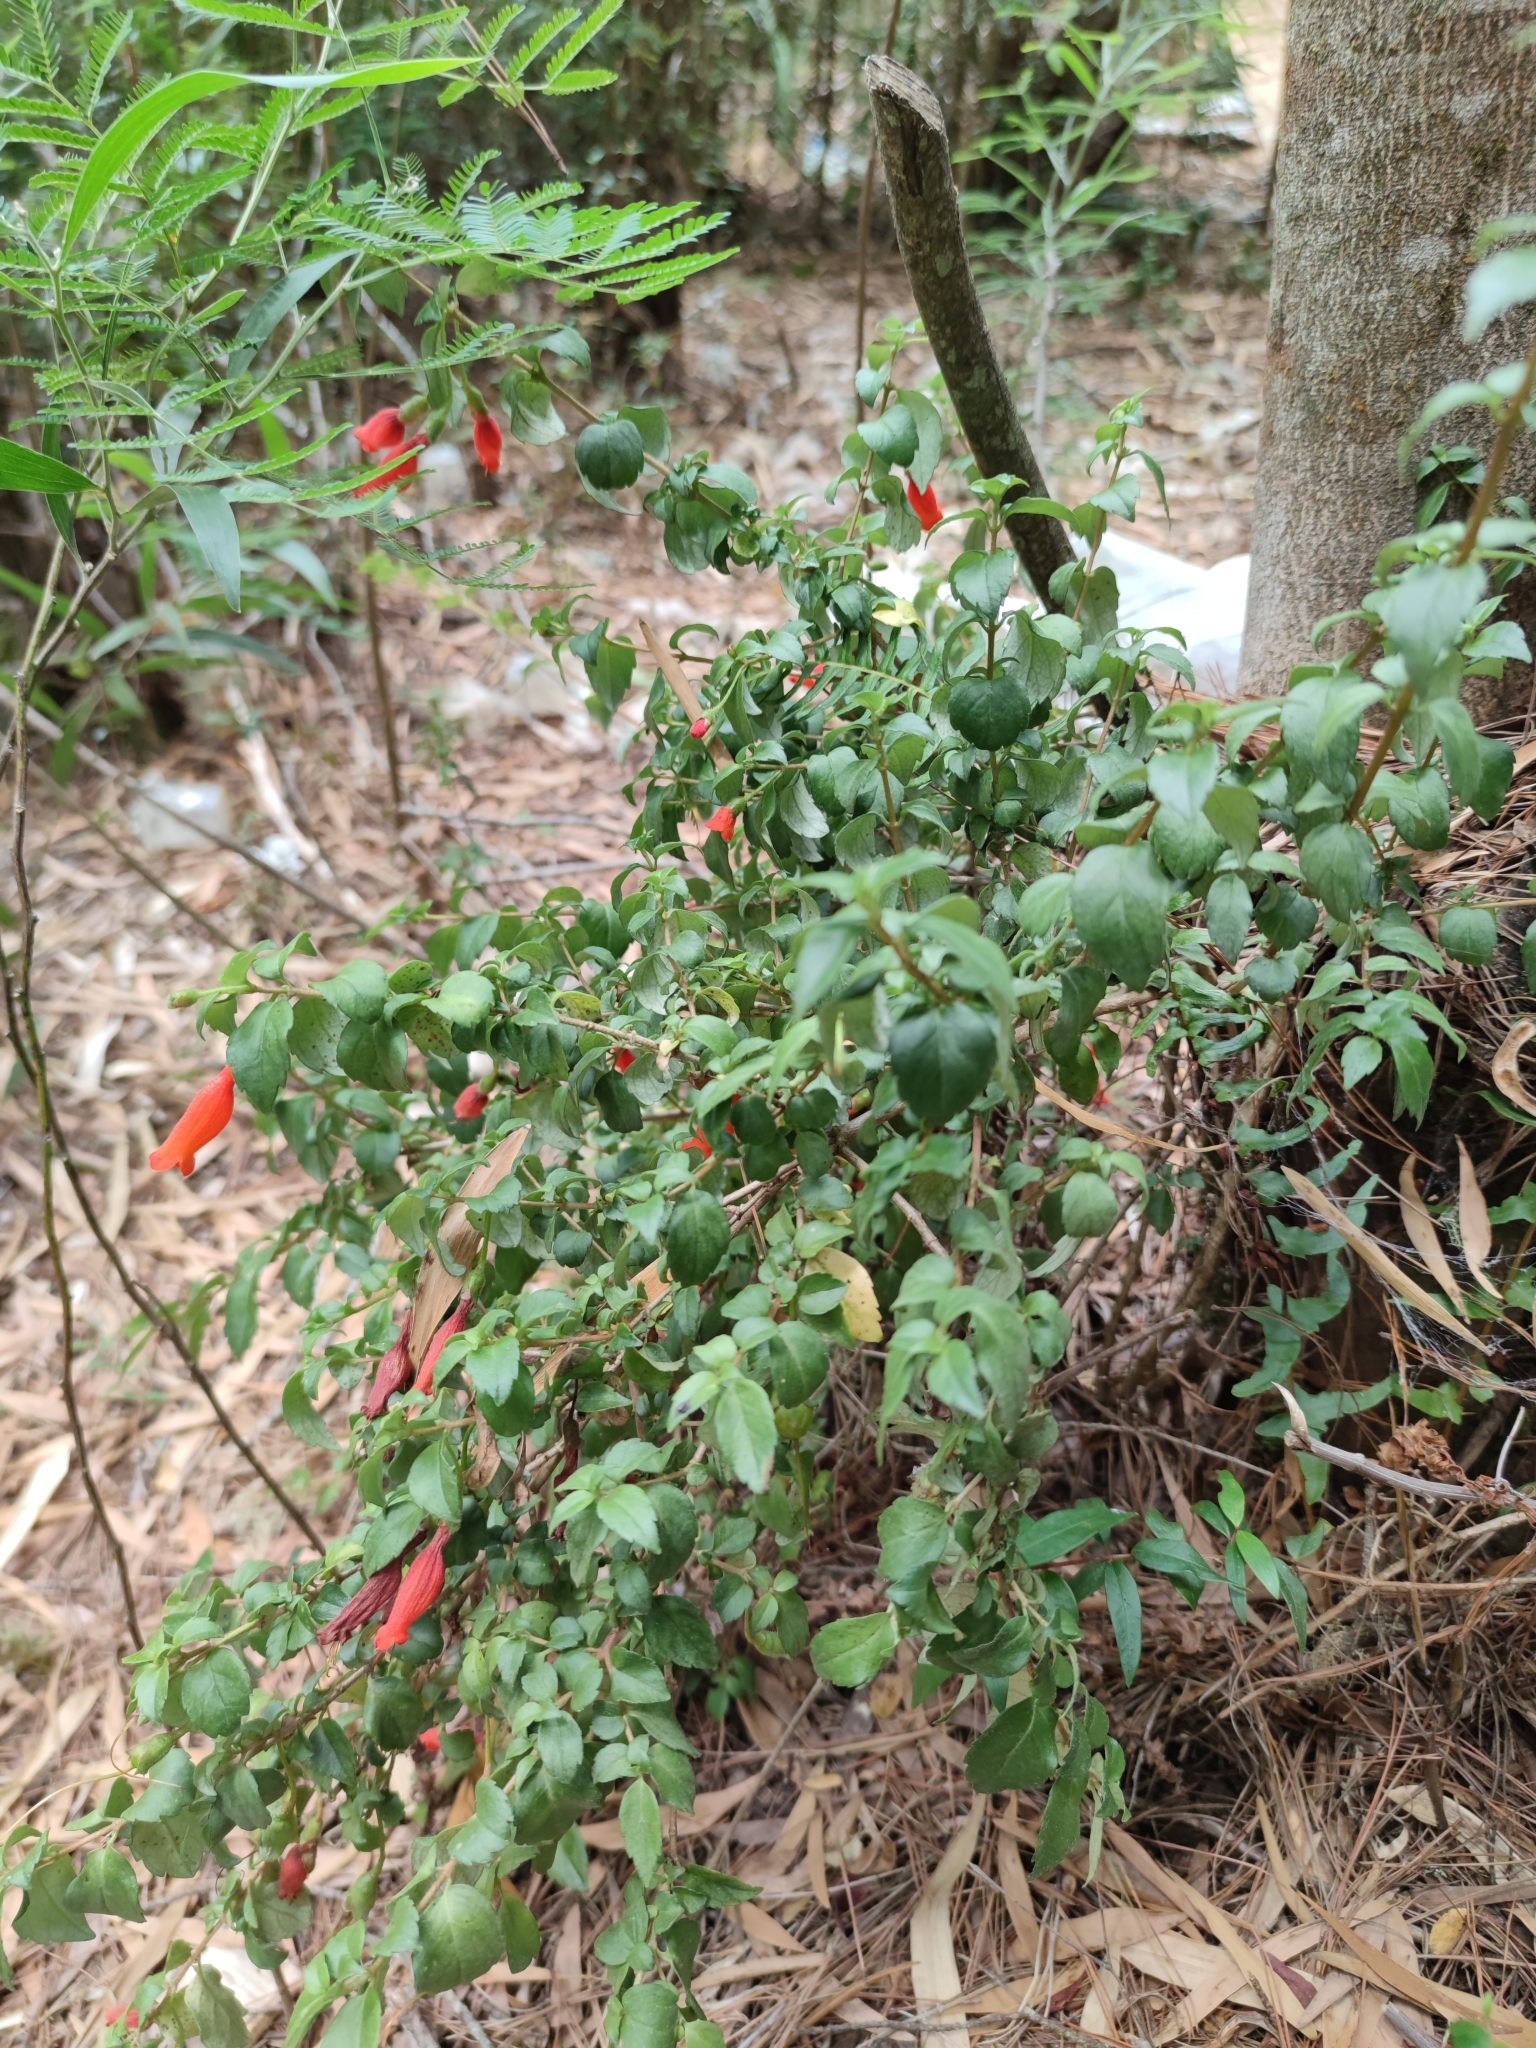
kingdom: Plantae
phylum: Tracheophyta
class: Magnoliopsida
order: Lamiales
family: Gesneriaceae
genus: Mitraria
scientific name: Mitraria coccinea
